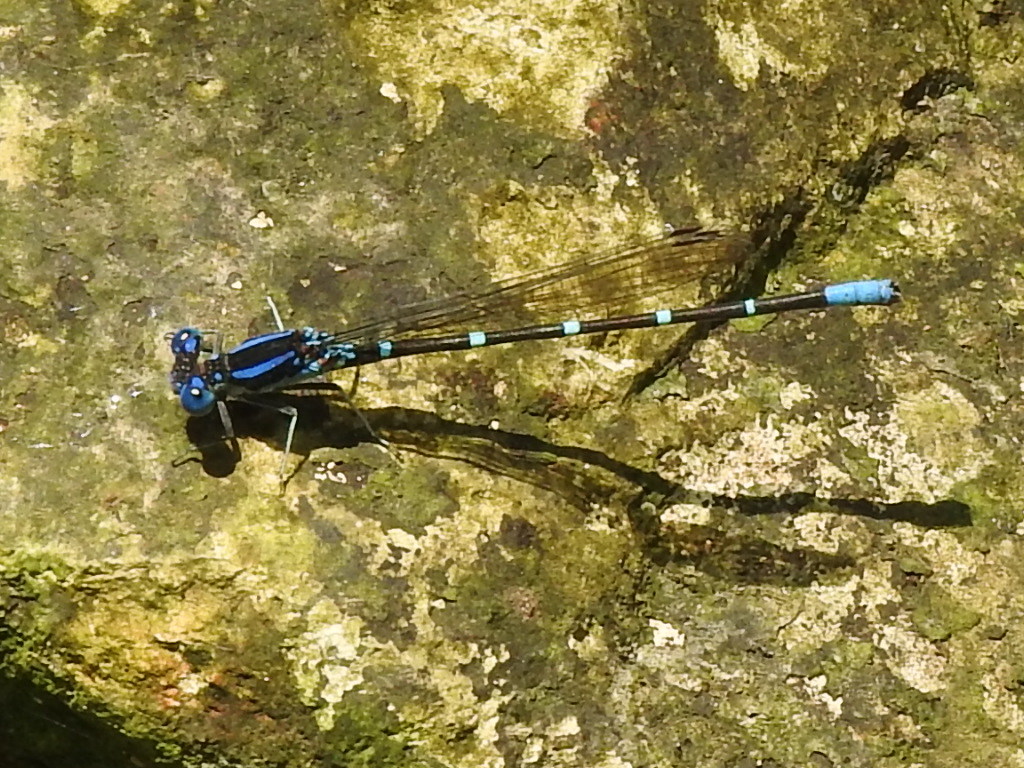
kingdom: Animalia
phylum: Arthropoda
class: Insecta
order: Odonata
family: Coenagrionidae
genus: Argia
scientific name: Argia sedula
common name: Blue-ringed dancer
